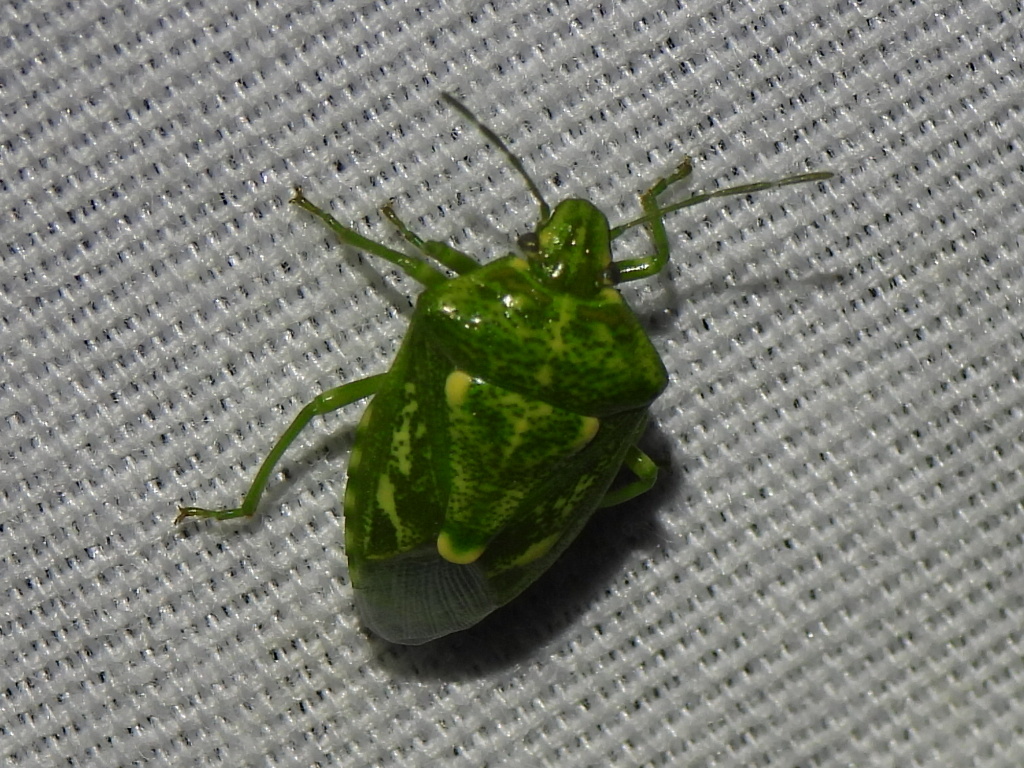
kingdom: Animalia
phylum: Arthropoda
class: Insecta
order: Hemiptera
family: Pentatomidae
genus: Banasa
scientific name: Banasa euchlora
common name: Cedar berry bug
